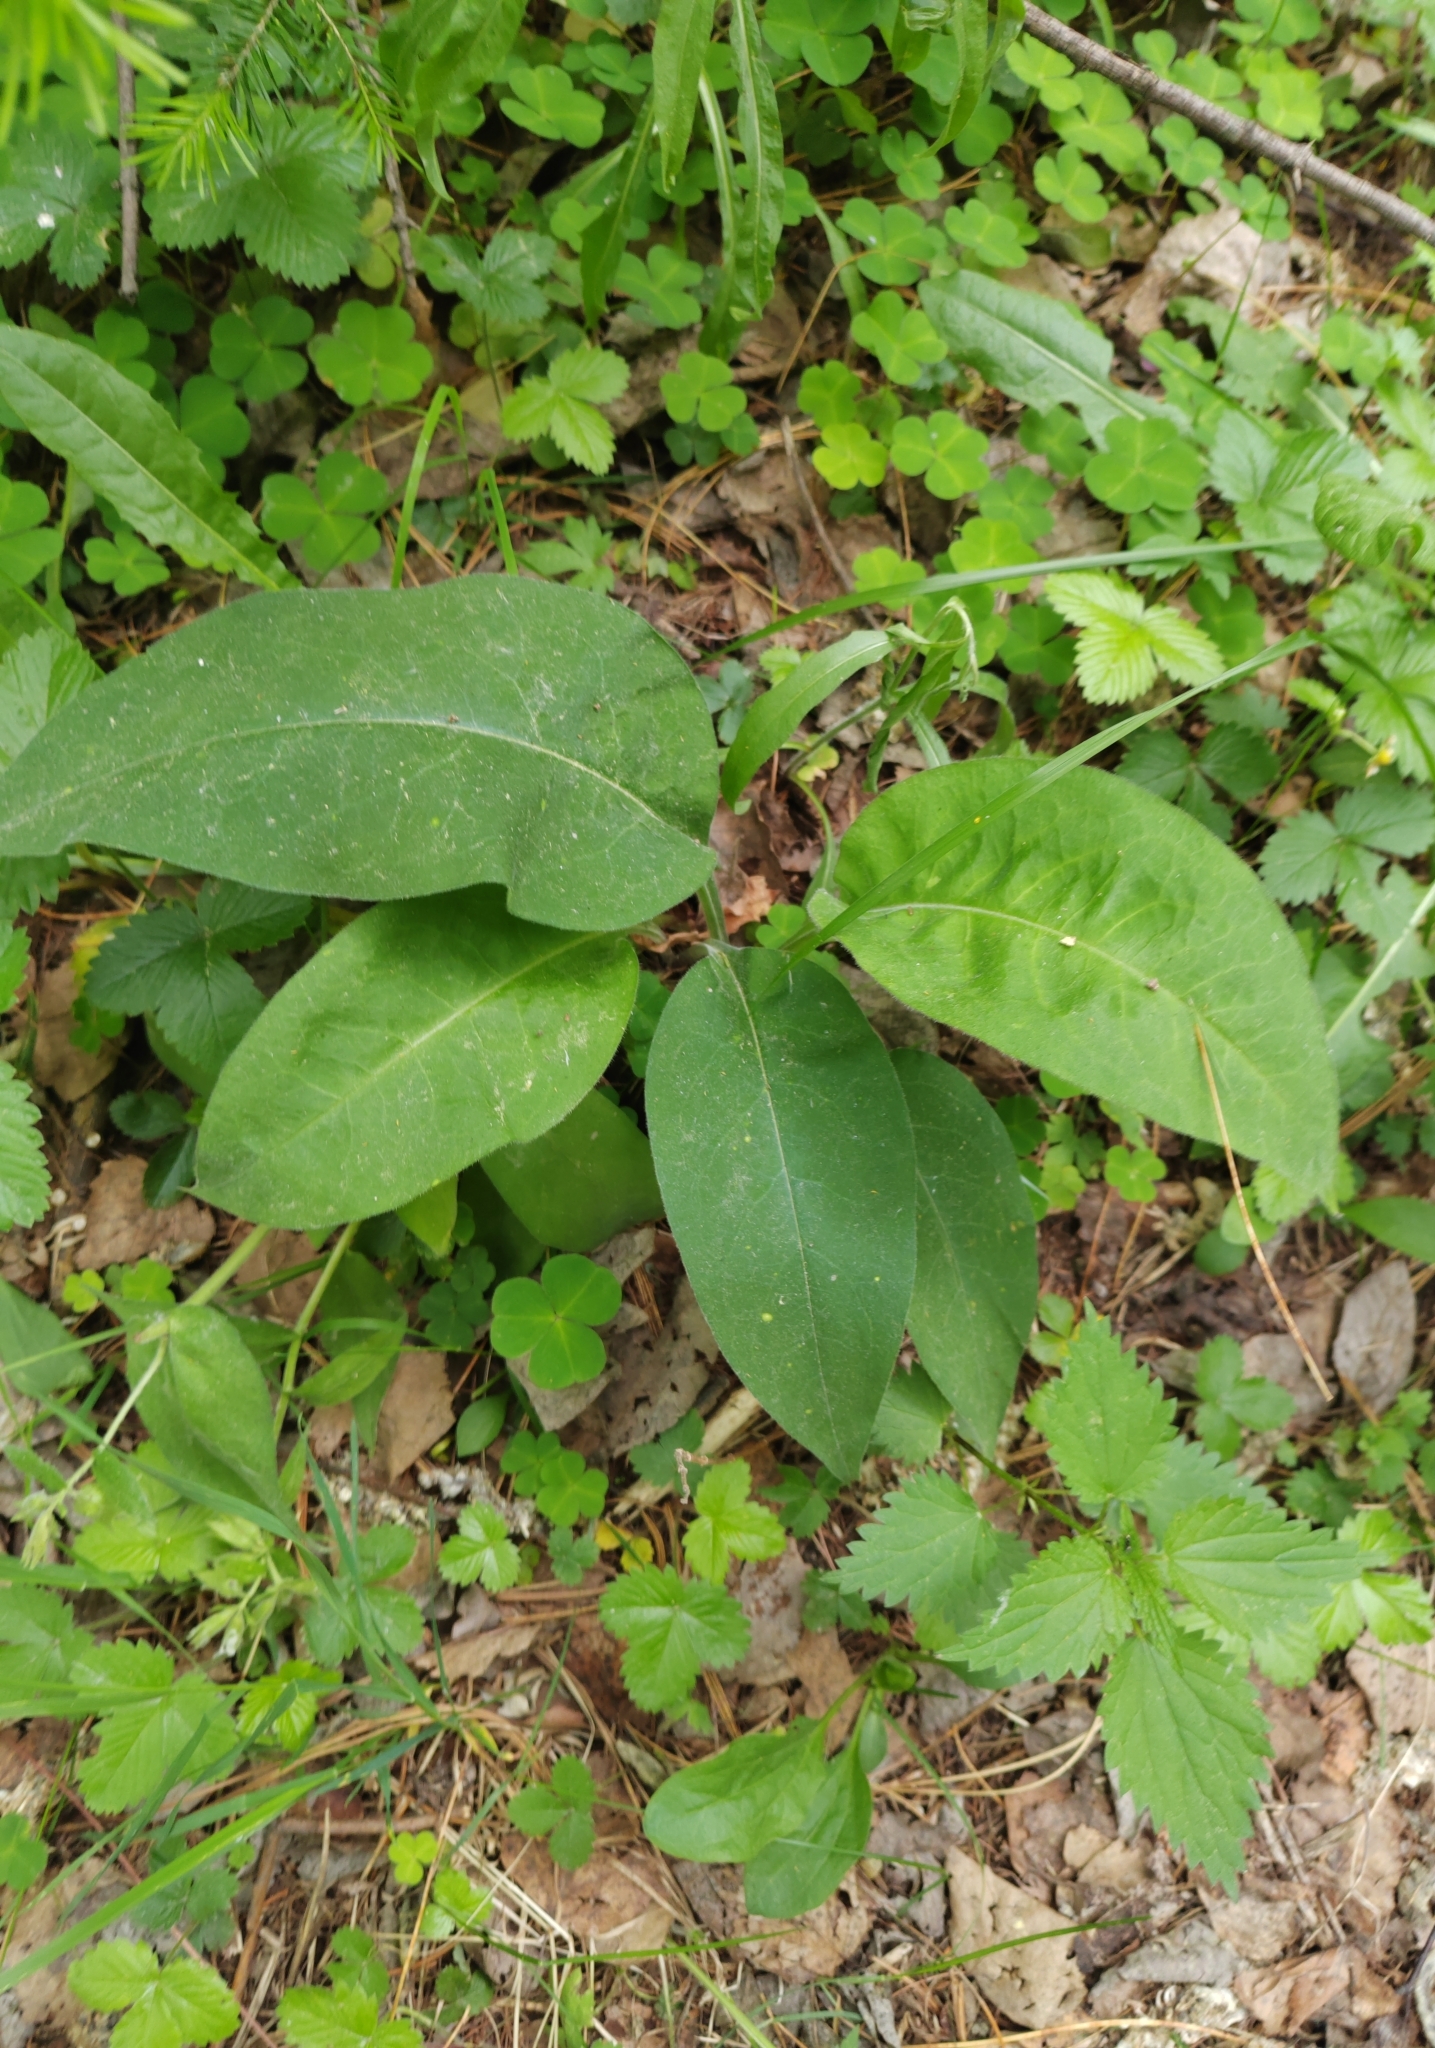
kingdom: Plantae
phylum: Tracheophyta
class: Magnoliopsida
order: Boraginales
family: Boraginaceae
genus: Pulmonaria
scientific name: Pulmonaria mollis
